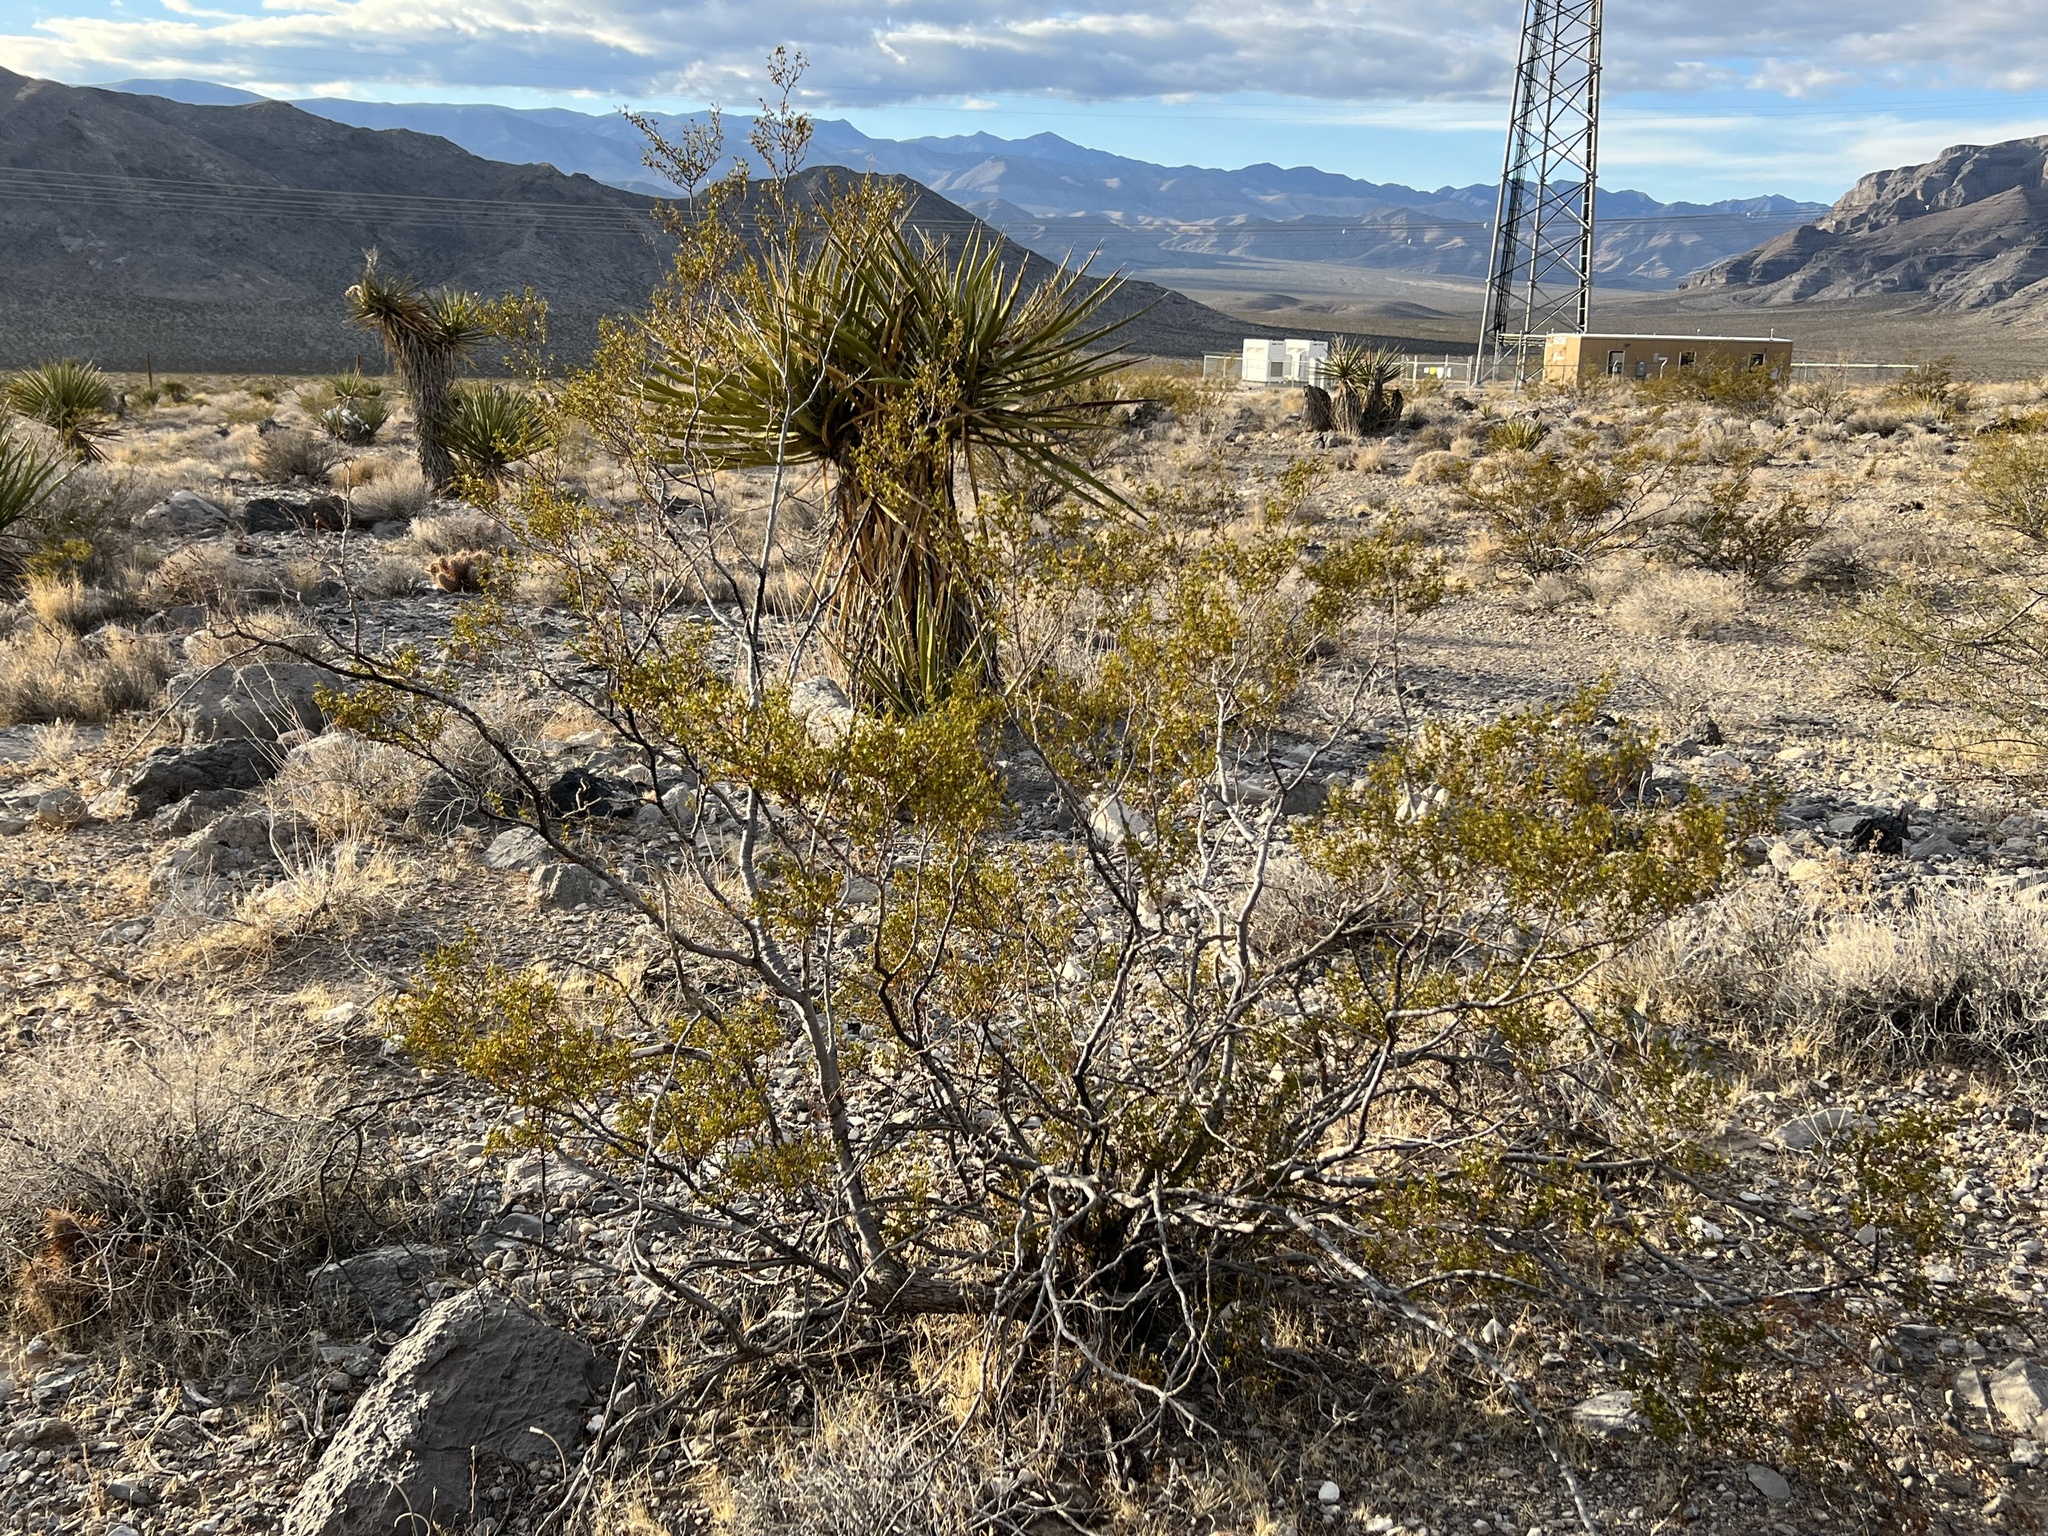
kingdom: Plantae
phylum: Tracheophyta
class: Magnoliopsida
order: Zygophyllales
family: Zygophyllaceae
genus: Larrea
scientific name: Larrea tridentata
